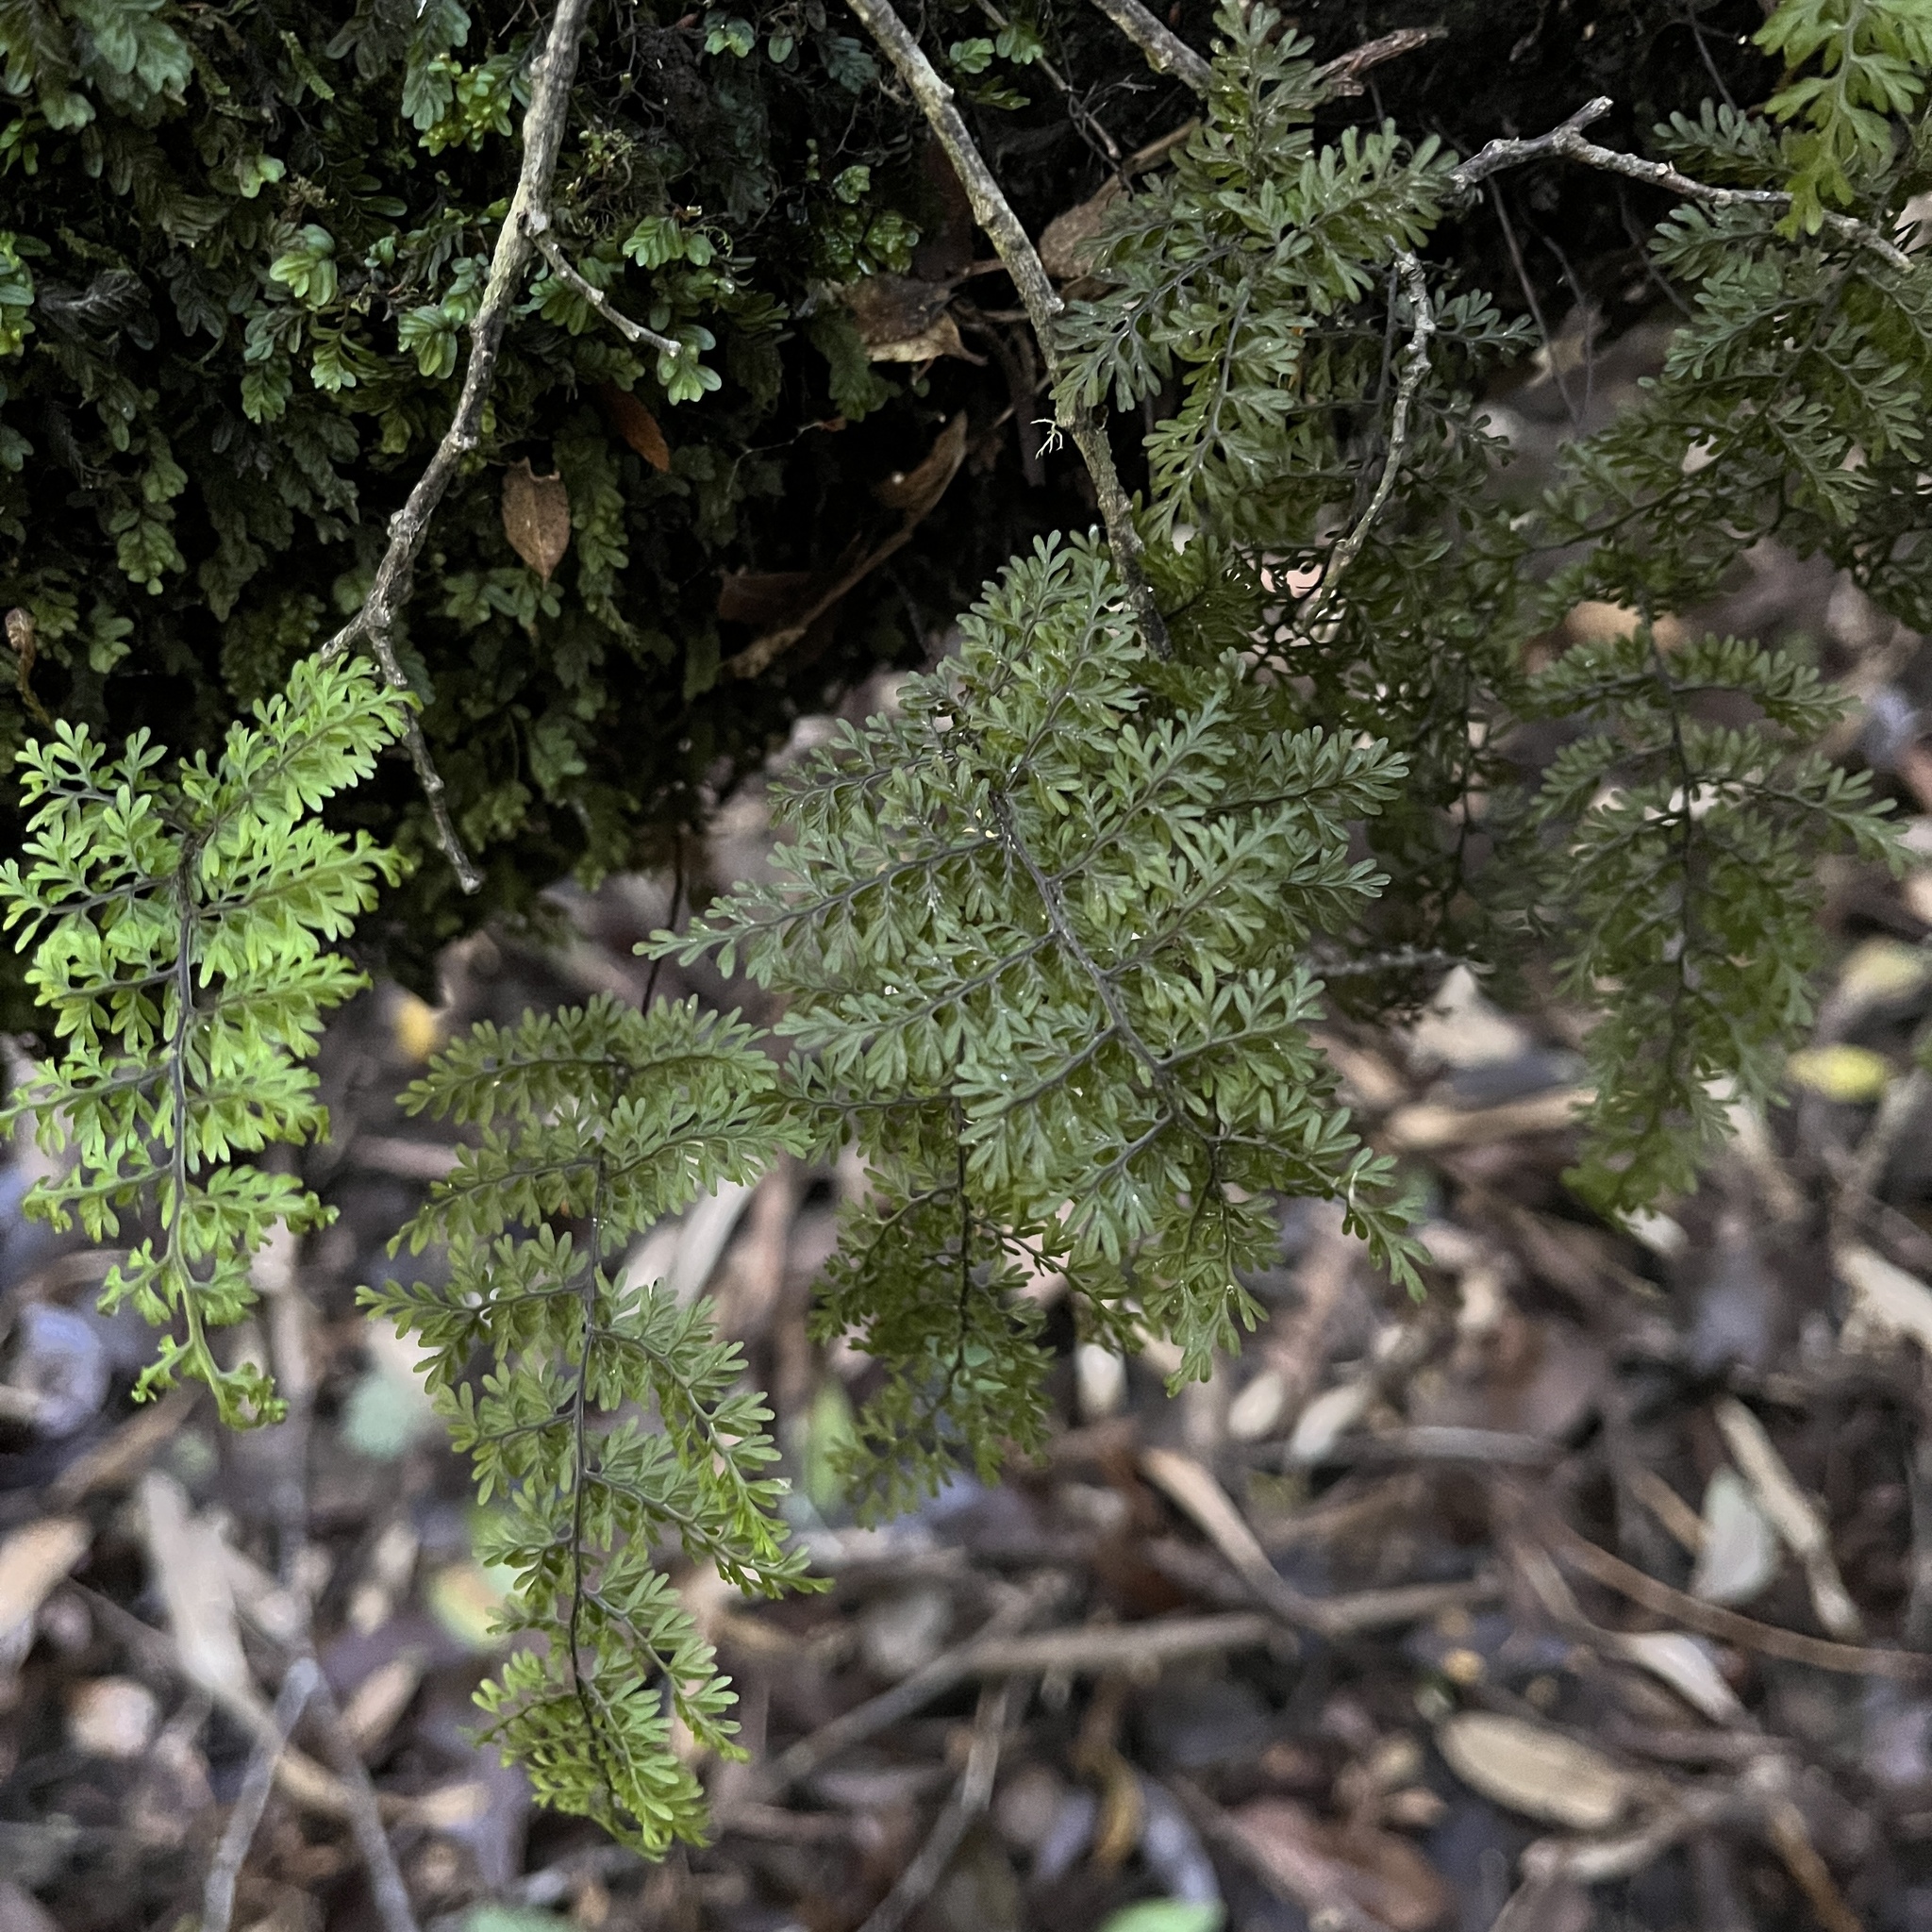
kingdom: Plantae
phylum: Tracheophyta
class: Polypodiopsida
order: Hymenophyllales
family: Hymenophyllaceae
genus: Hymenophyllum
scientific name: Hymenophyllum dentatum
